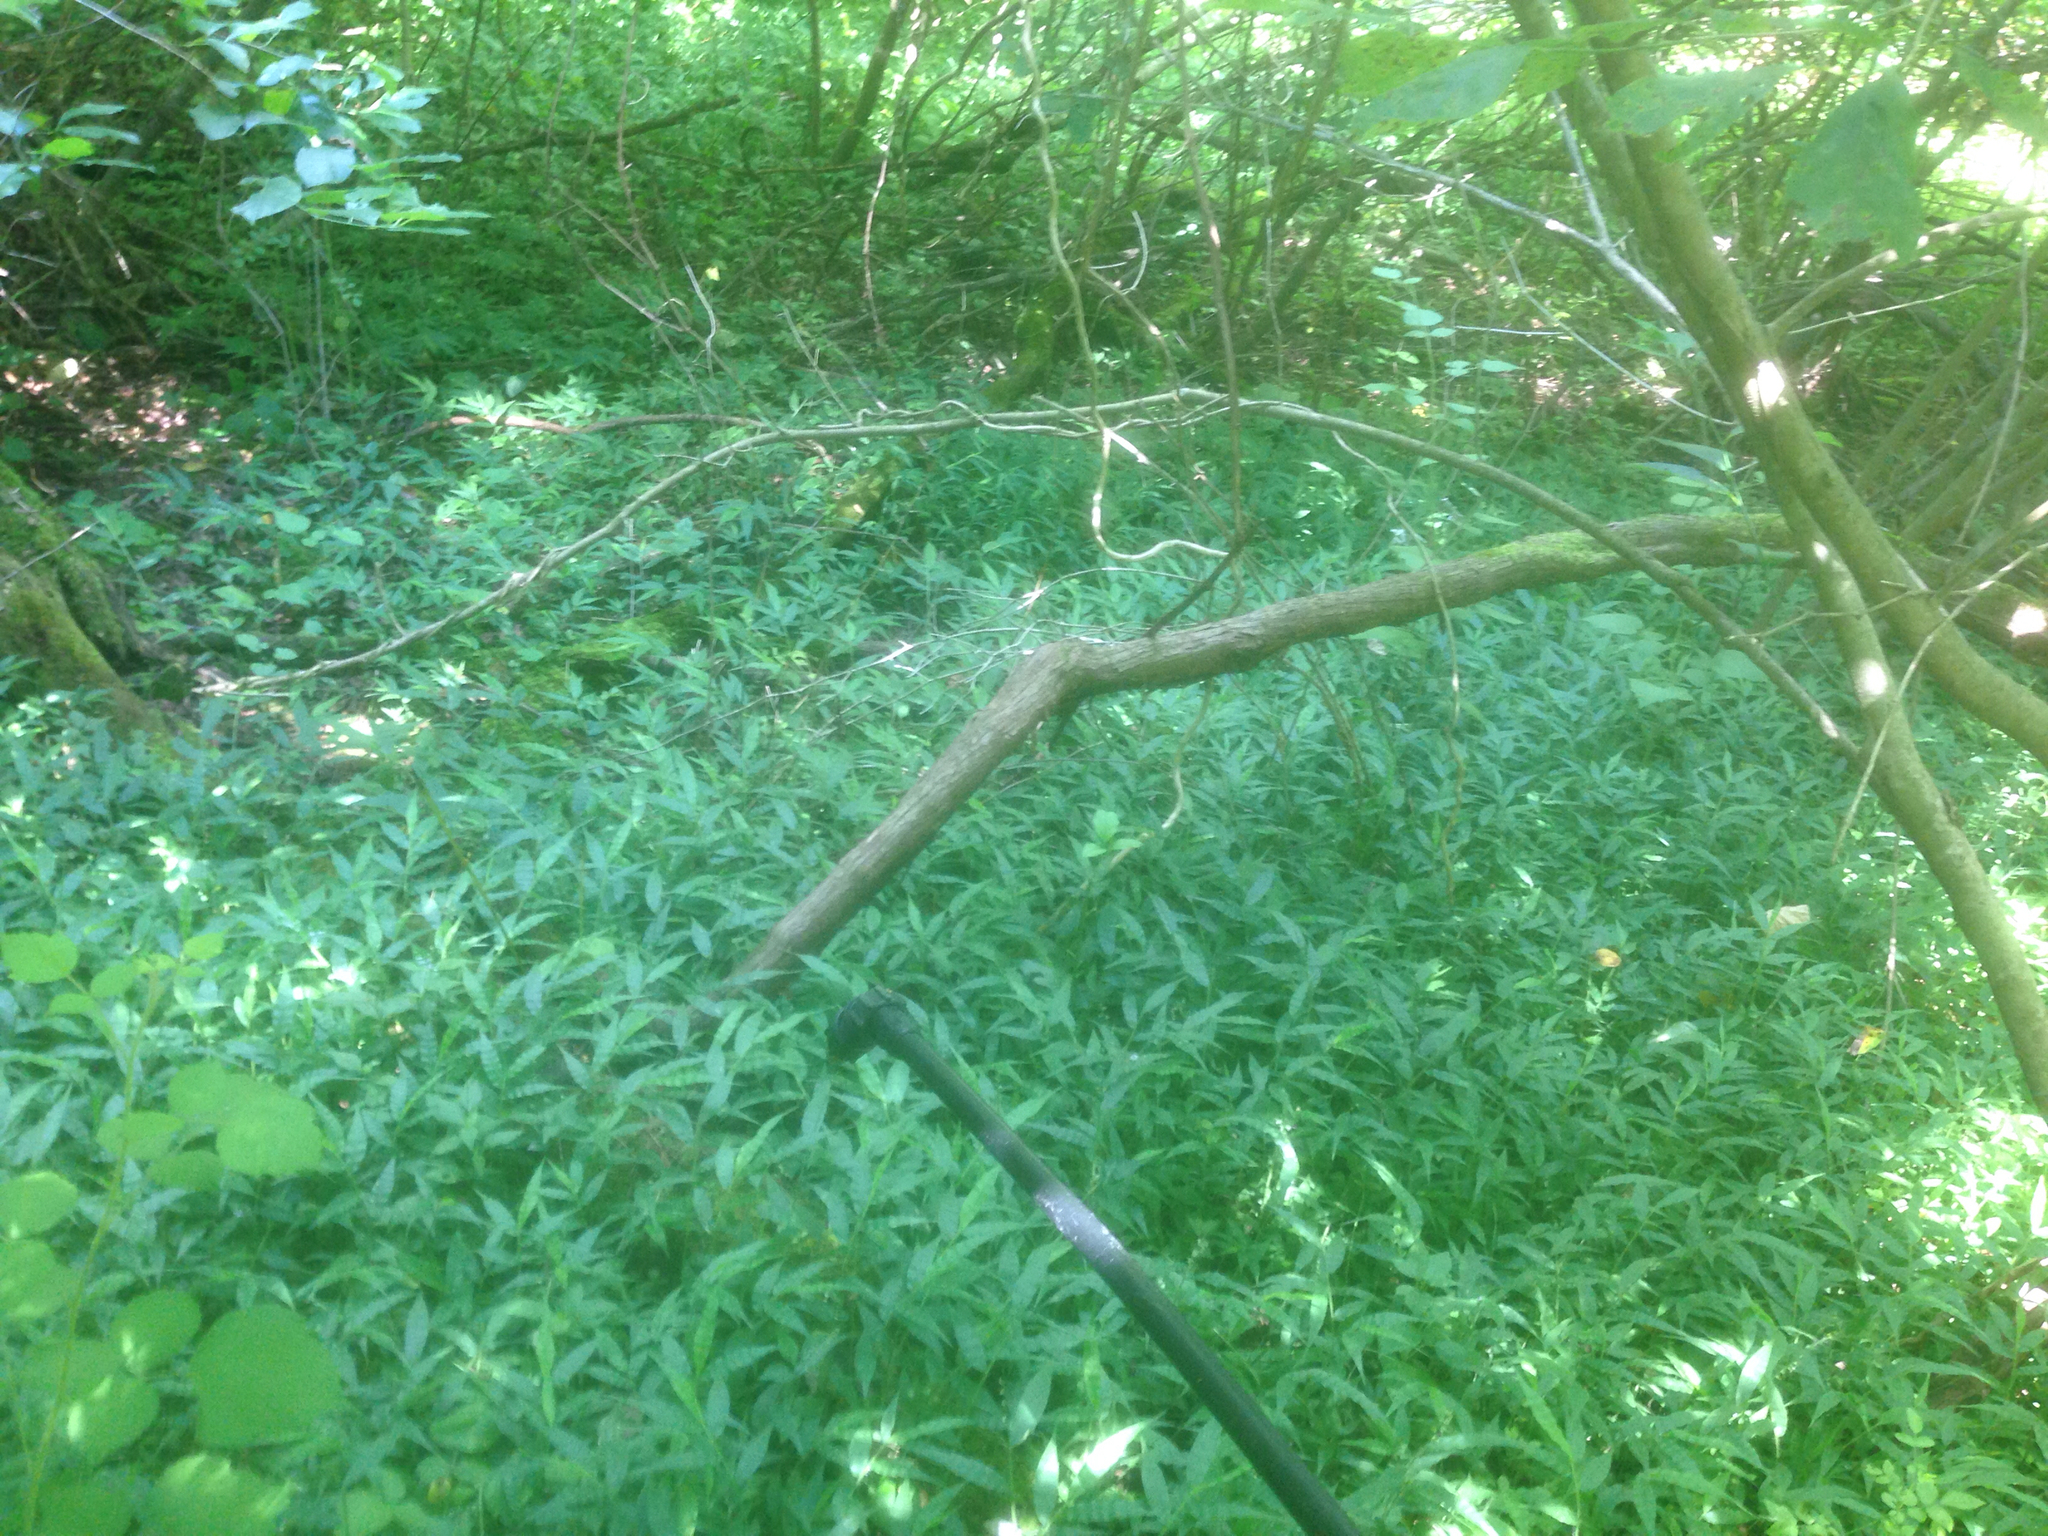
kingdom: Plantae
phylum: Tracheophyta
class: Liliopsida
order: Poales
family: Poaceae
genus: Oplismenus
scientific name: Oplismenus undulatifolius
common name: Wavyleaf basketgrass
